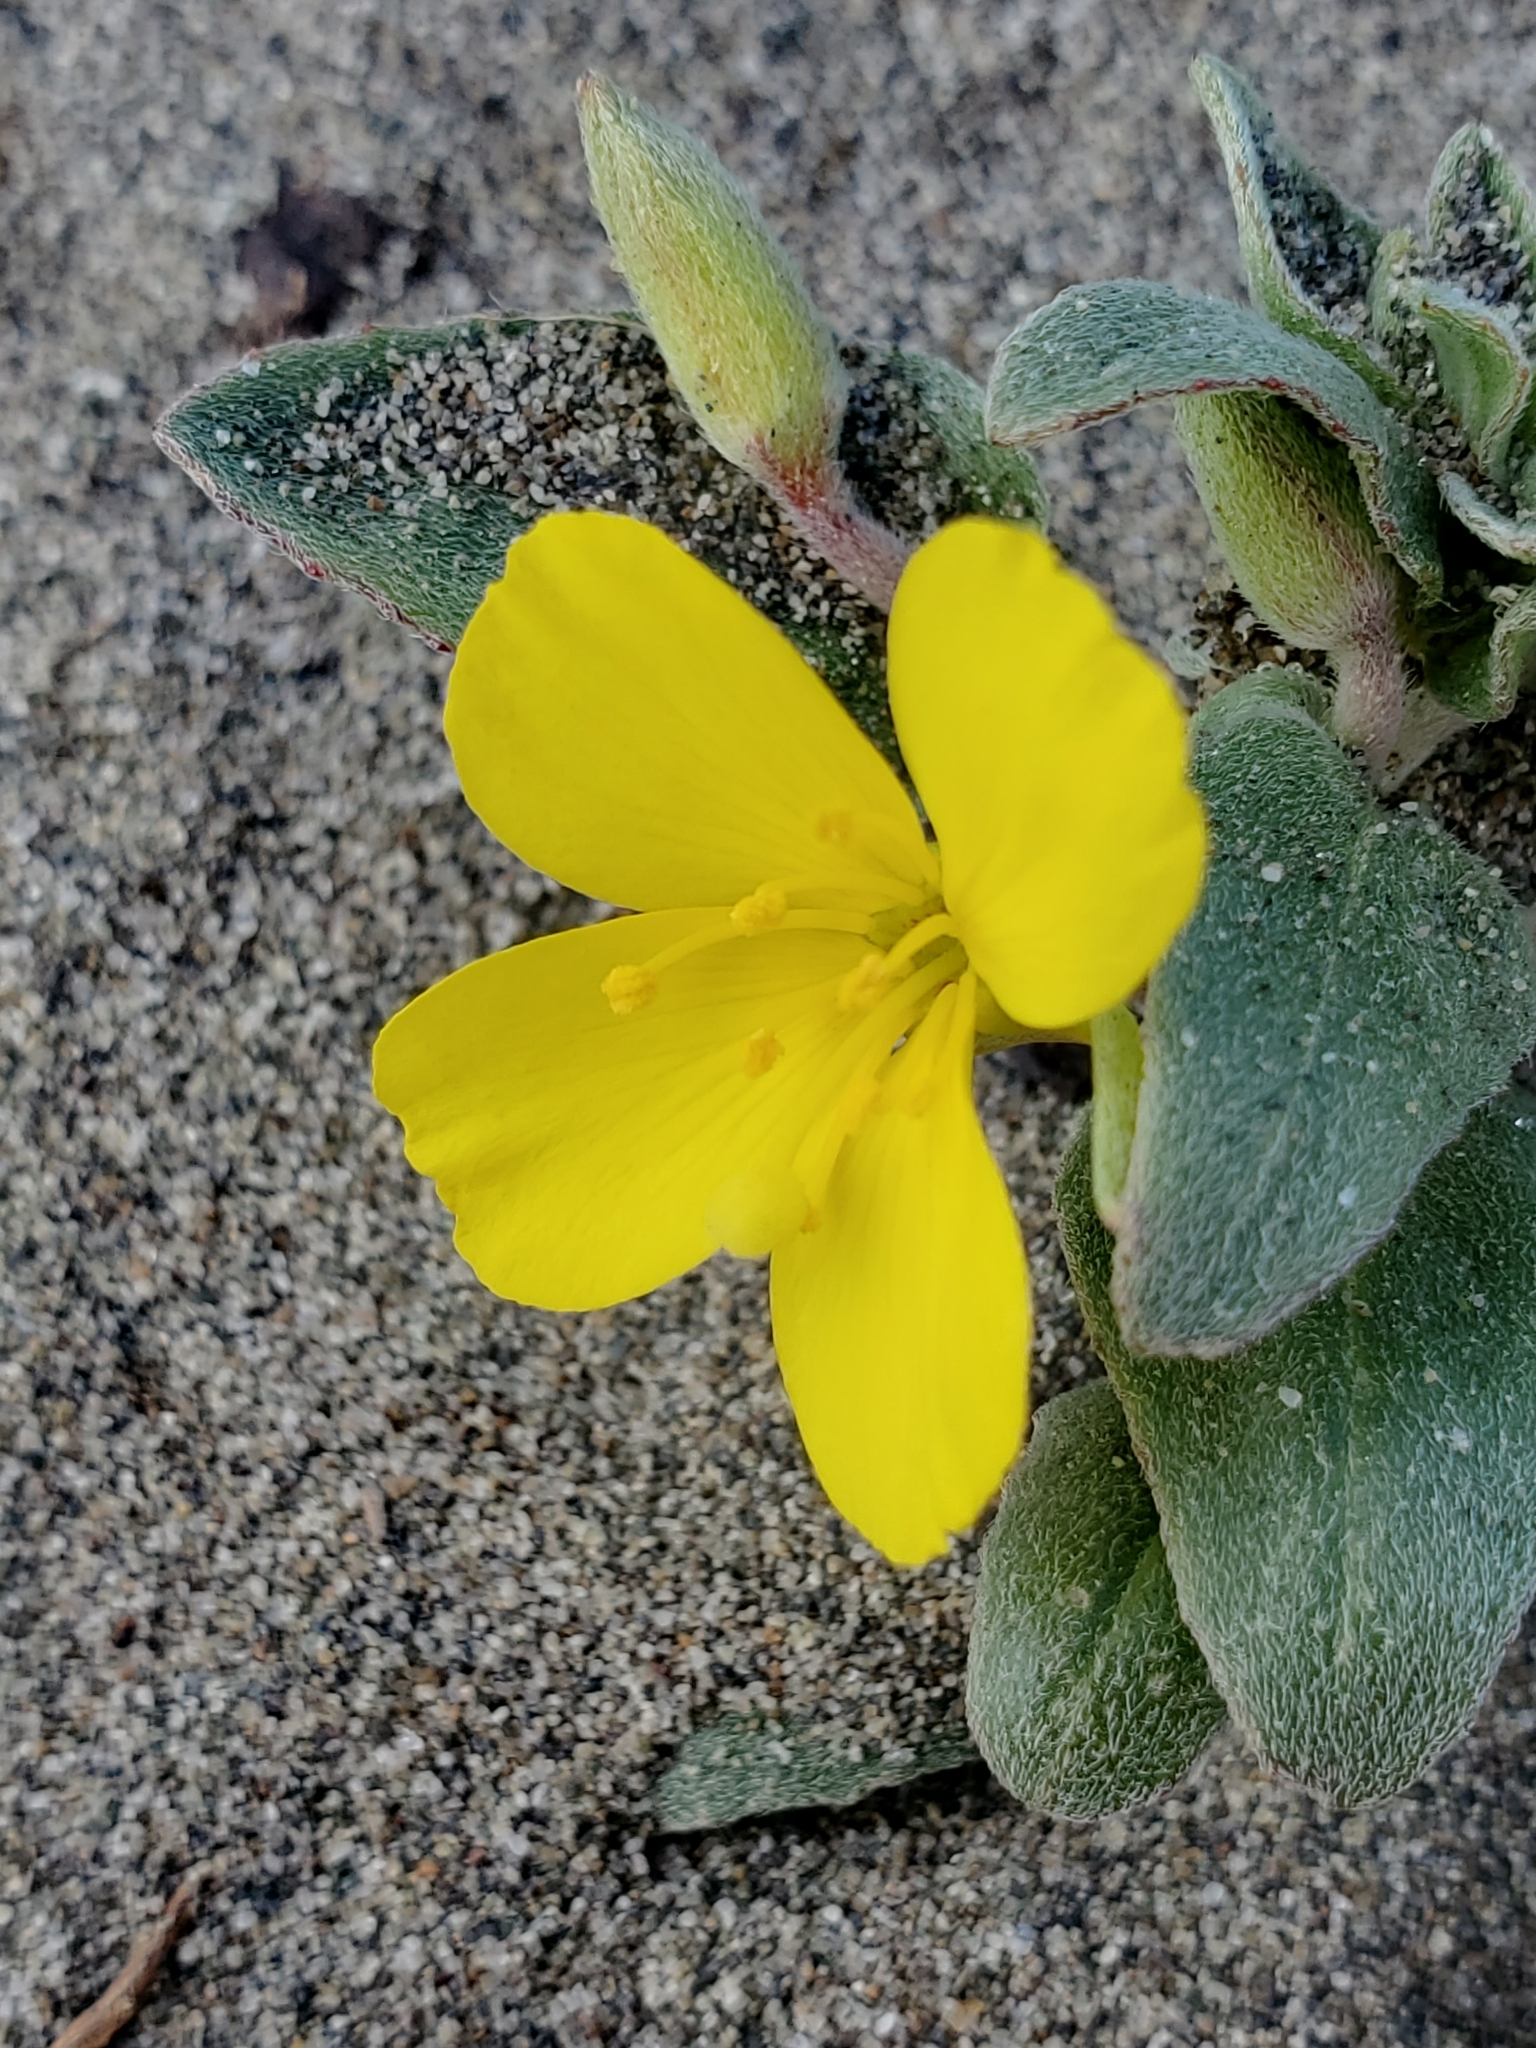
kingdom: Plantae
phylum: Tracheophyta
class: Magnoliopsida
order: Myrtales
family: Onagraceae
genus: Camissoniopsis
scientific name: Camissoniopsis cheiranthifolia
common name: Beach suncup
